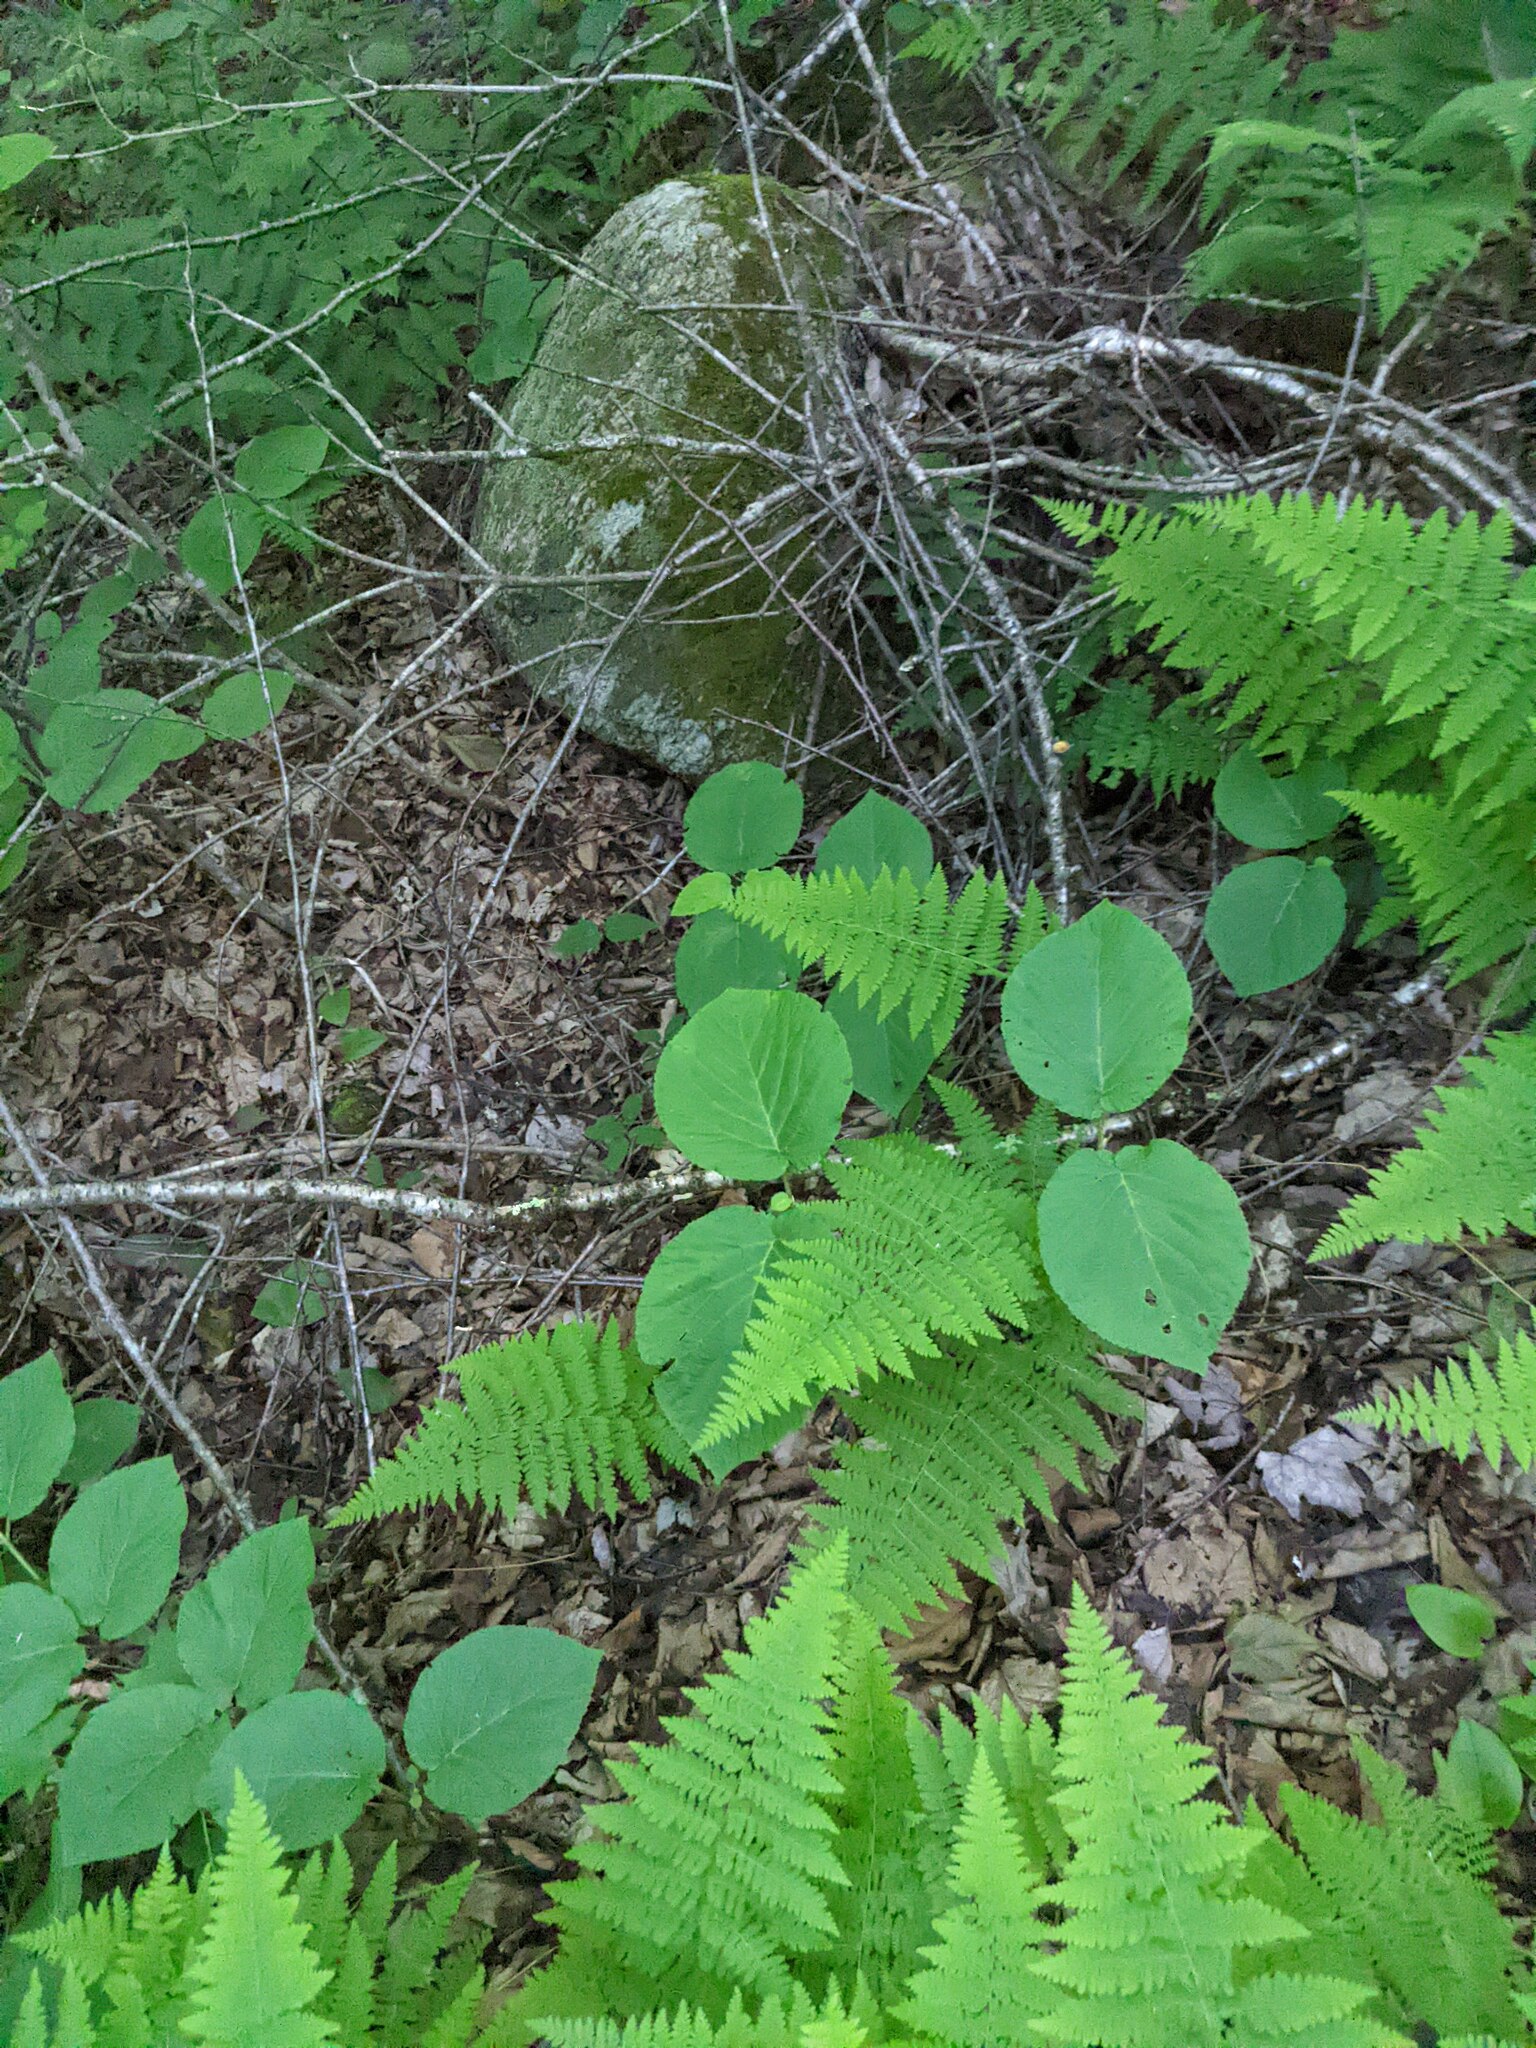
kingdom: Plantae
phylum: Tracheophyta
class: Magnoliopsida
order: Dipsacales
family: Viburnaceae
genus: Viburnum
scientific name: Viburnum lantanoides
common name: Hobblebush
